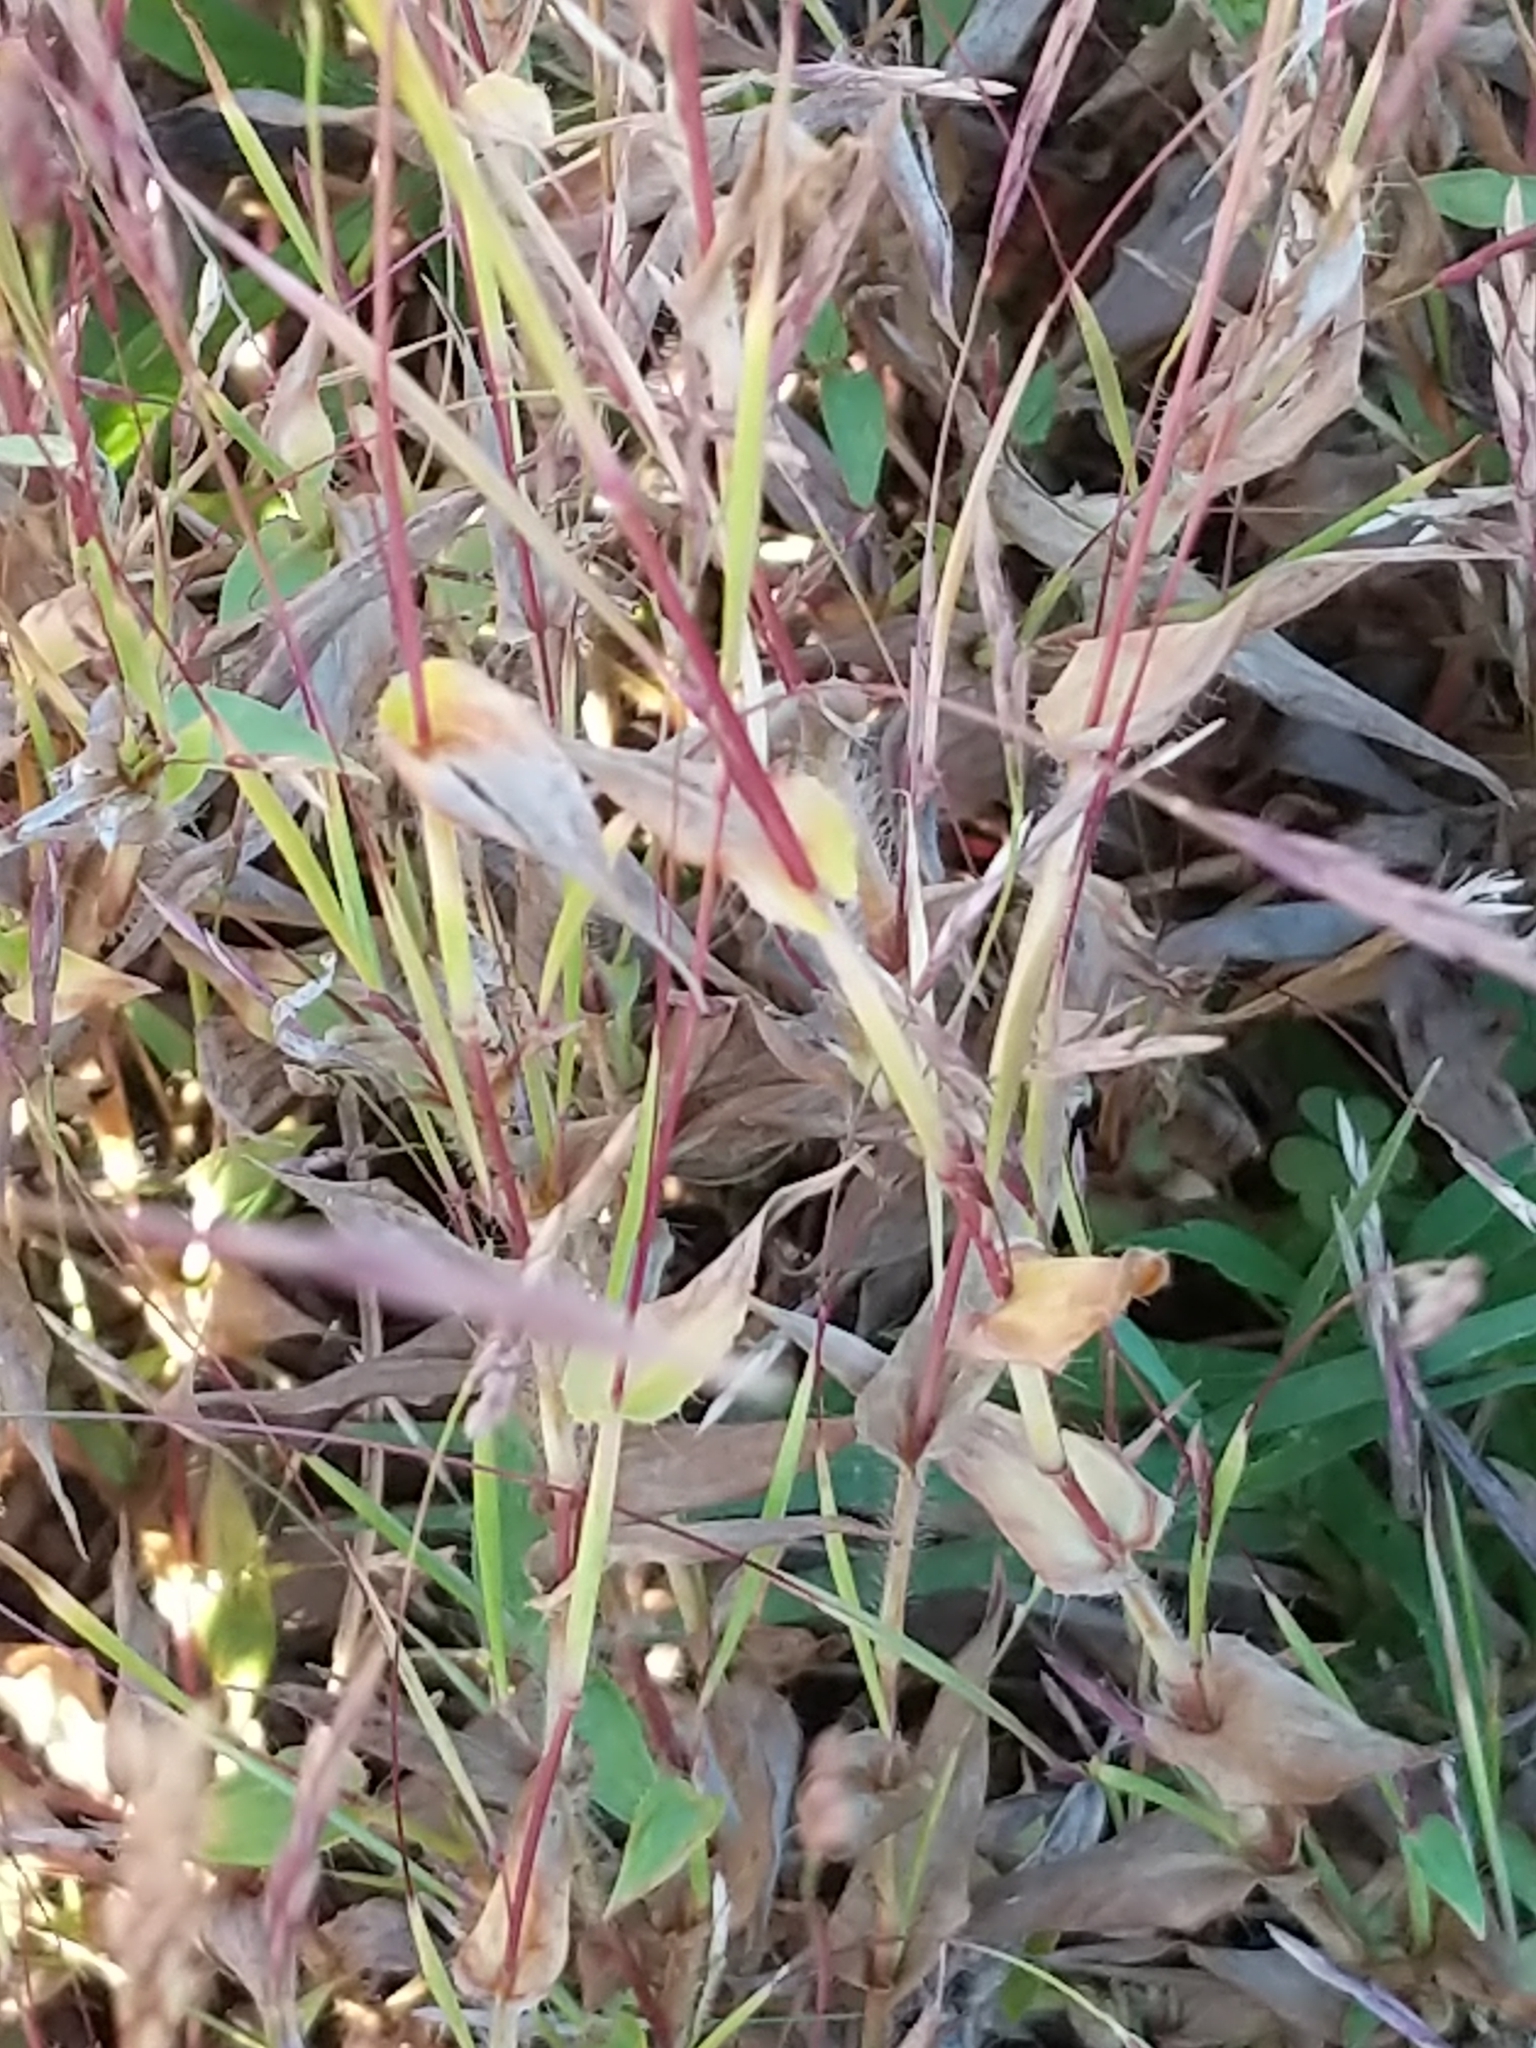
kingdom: Plantae
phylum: Tracheophyta
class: Liliopsida
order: Poales
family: Poaceae
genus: Arthraxon
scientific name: Arthraxon hispidus
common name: Small carpgrass
